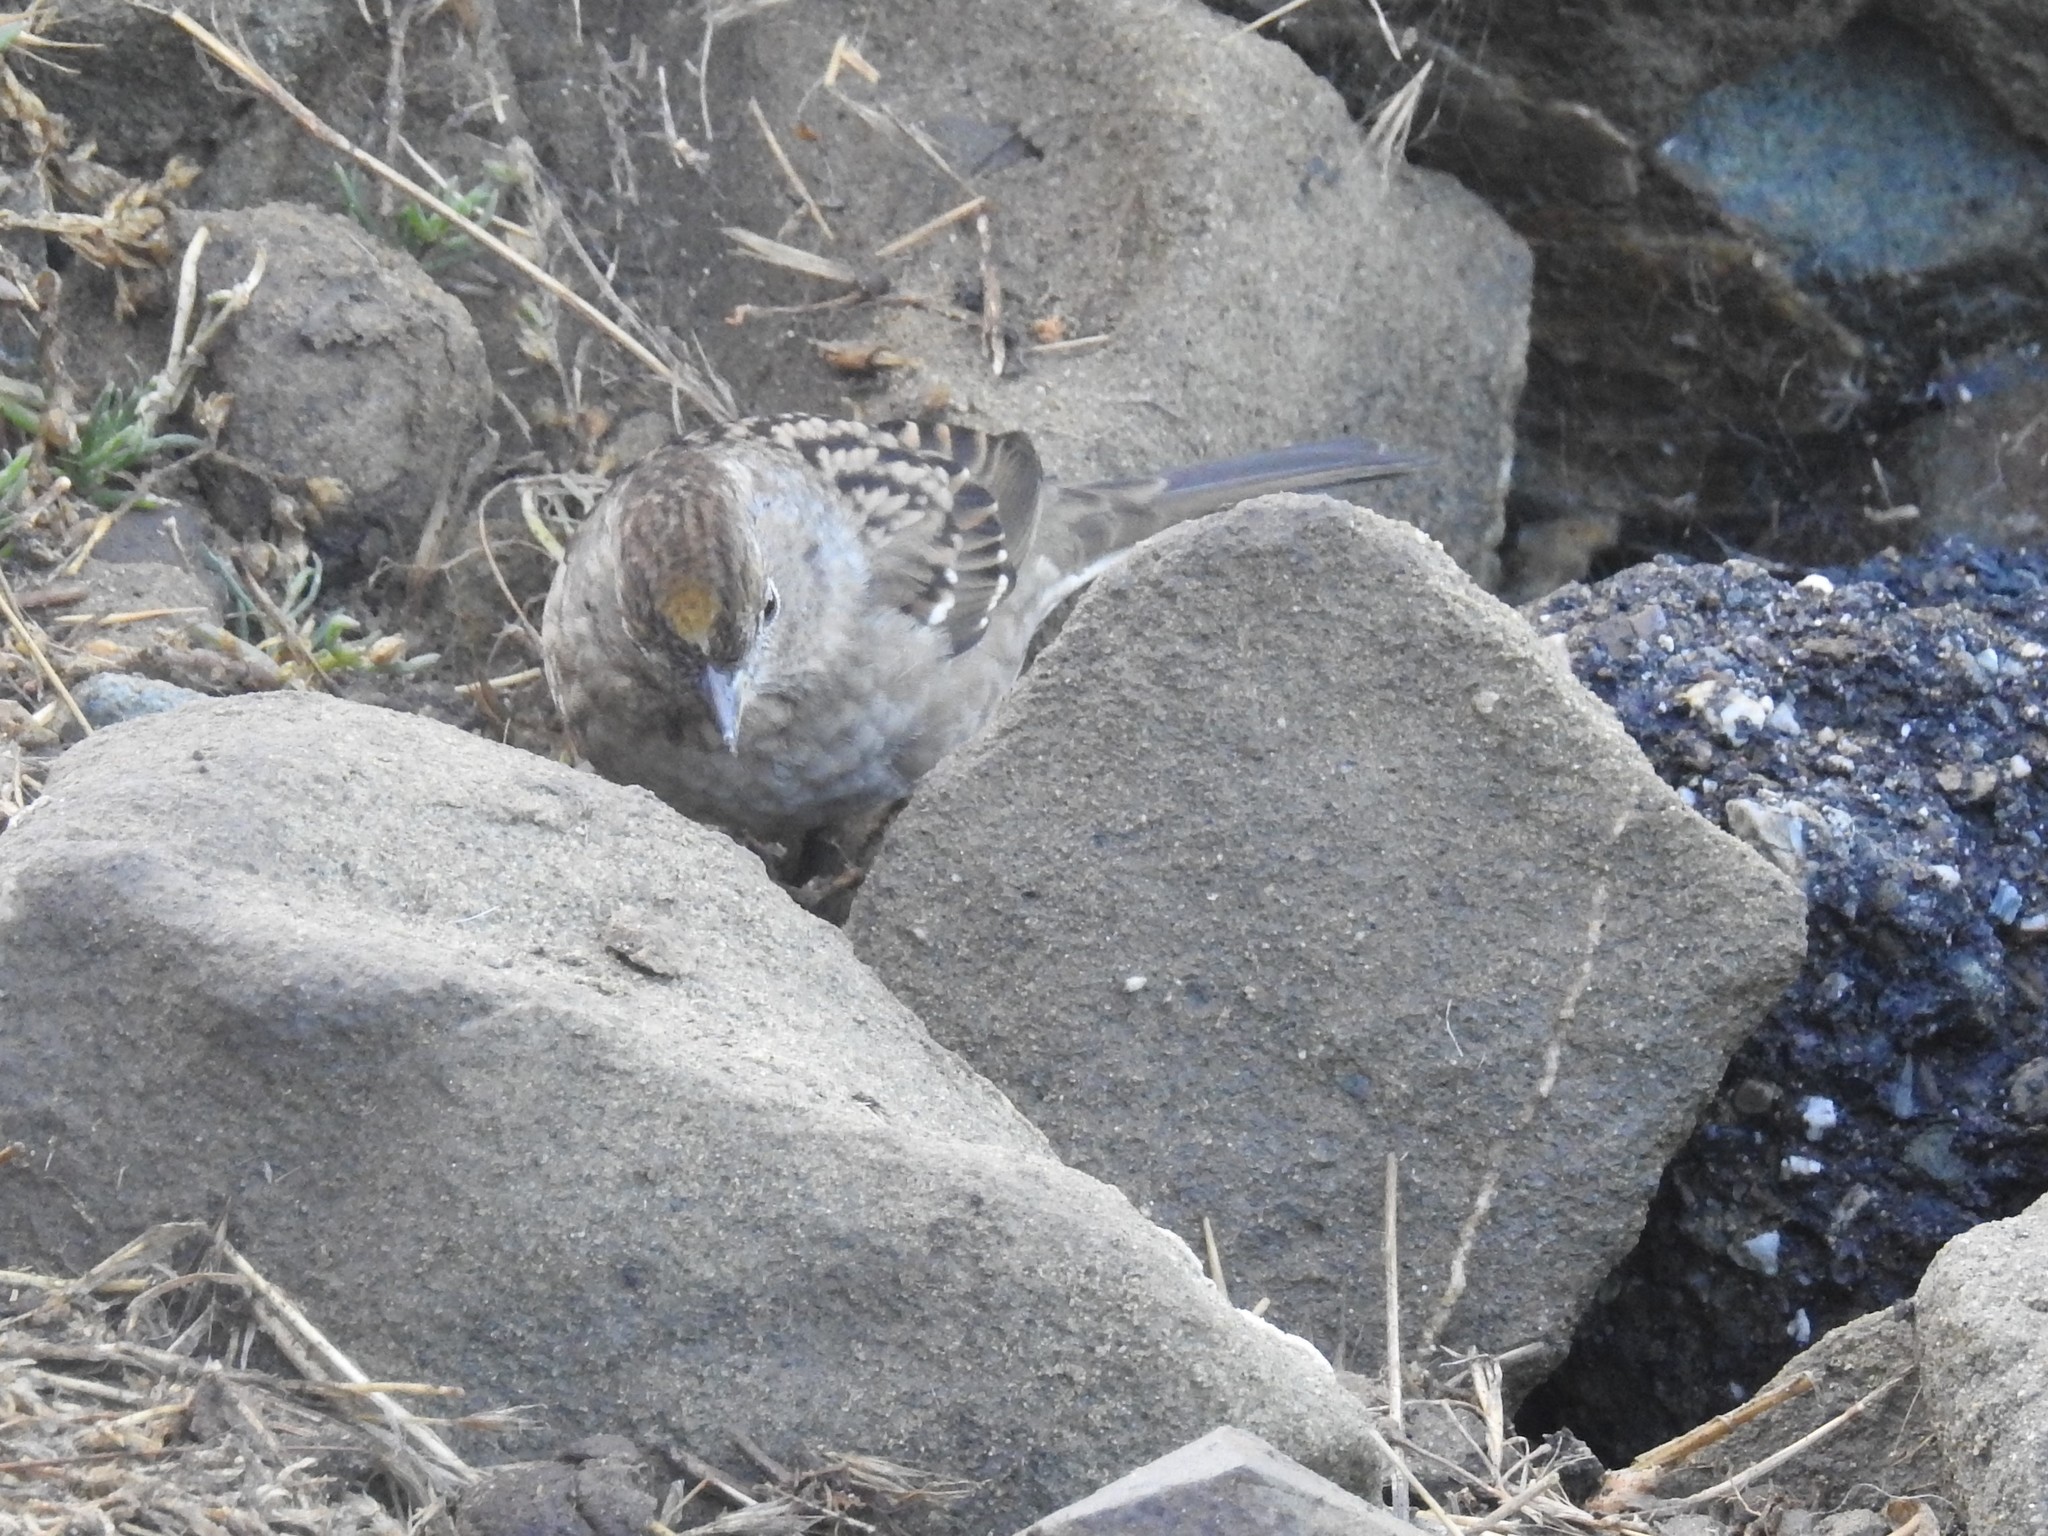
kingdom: Animalia
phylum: Chordata
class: Aves
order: Passeriformes
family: Passerellidae
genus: Zonotrichia
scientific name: Zonotrichia atricapilla
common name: Golden-crowned sparrow
